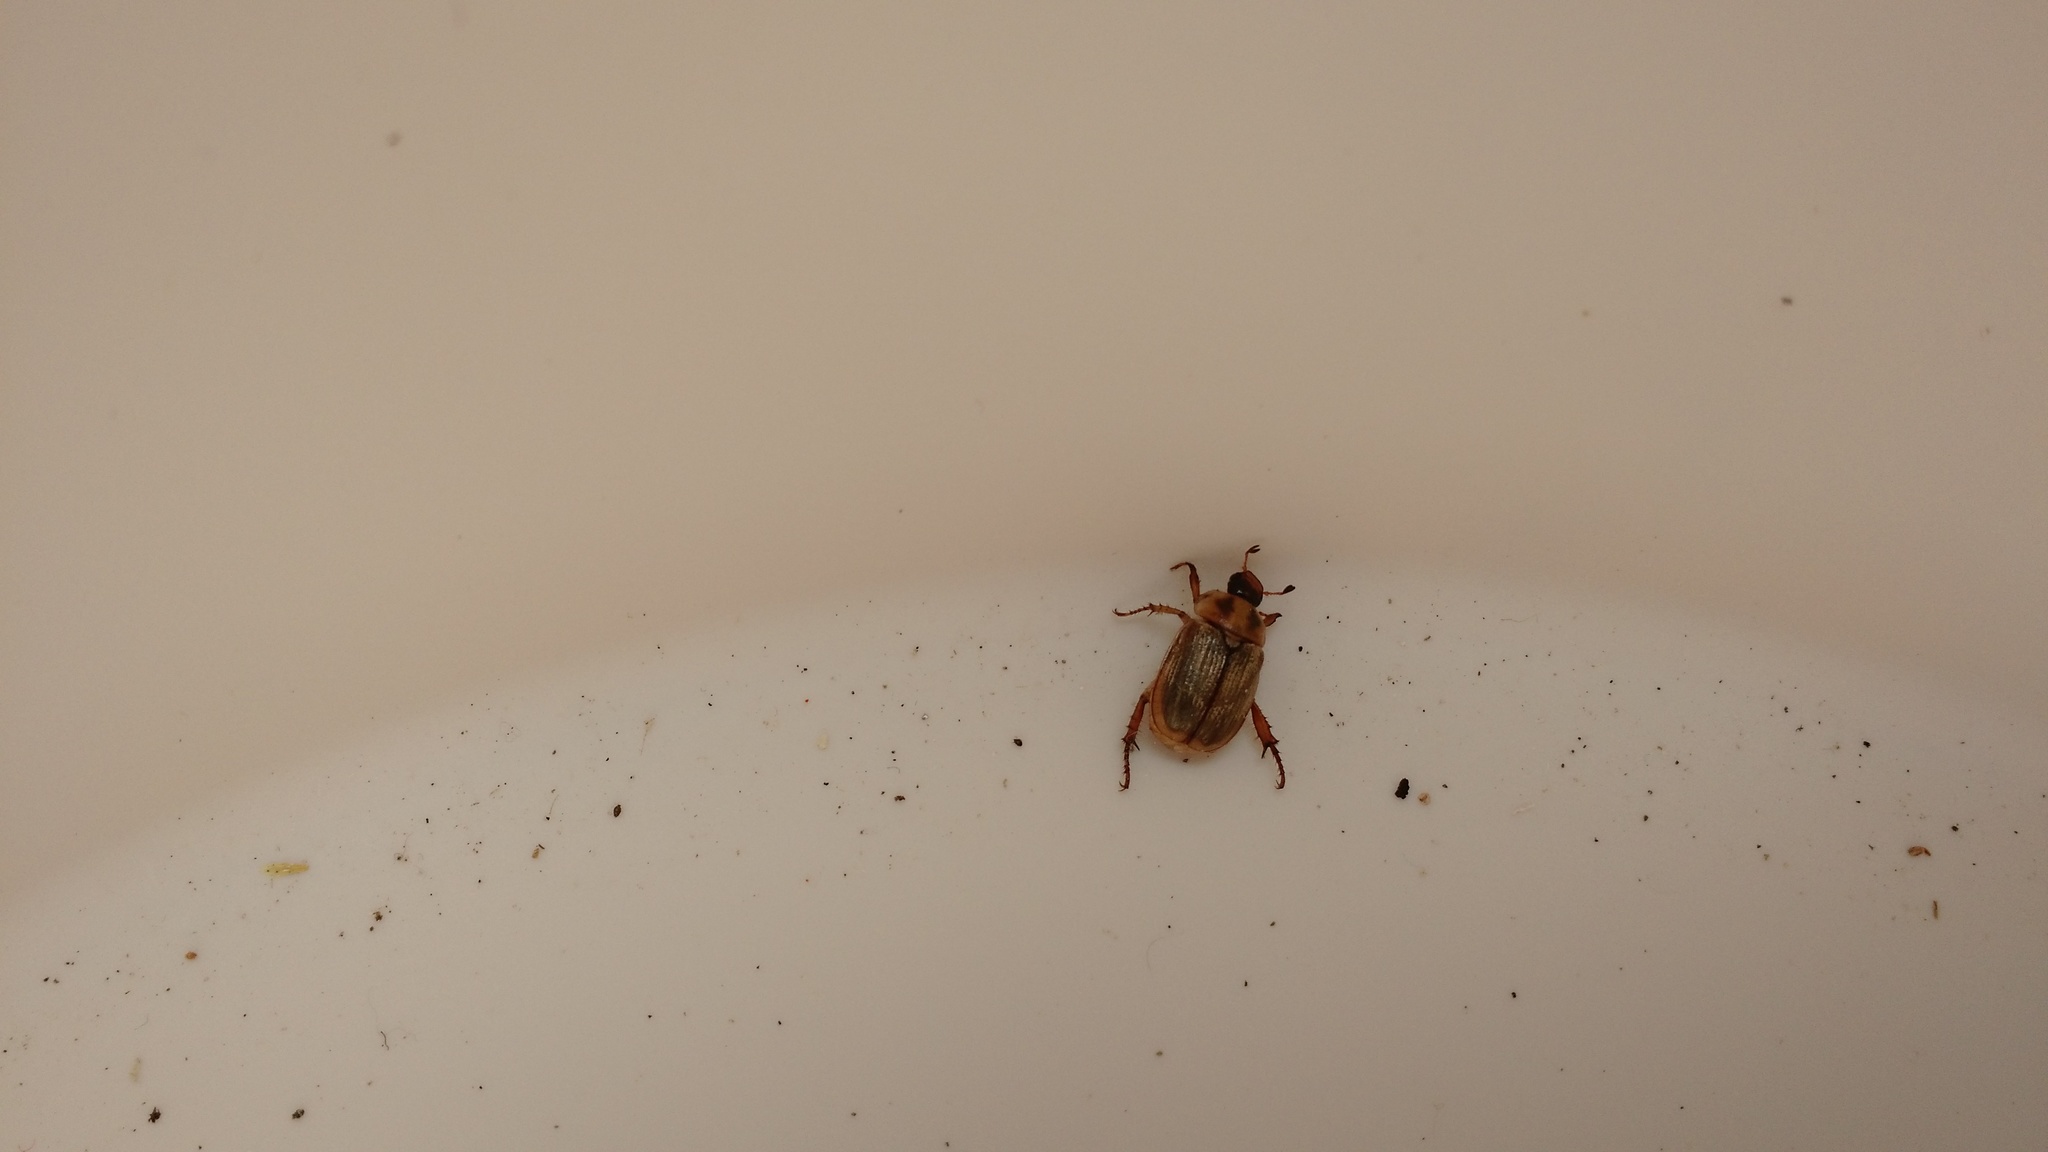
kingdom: Animalia
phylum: Arthropoda
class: Insecta
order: Coleoptera
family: Scarabaeidae
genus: Exomala
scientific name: Exomala orientalis
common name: Oriental beetle
